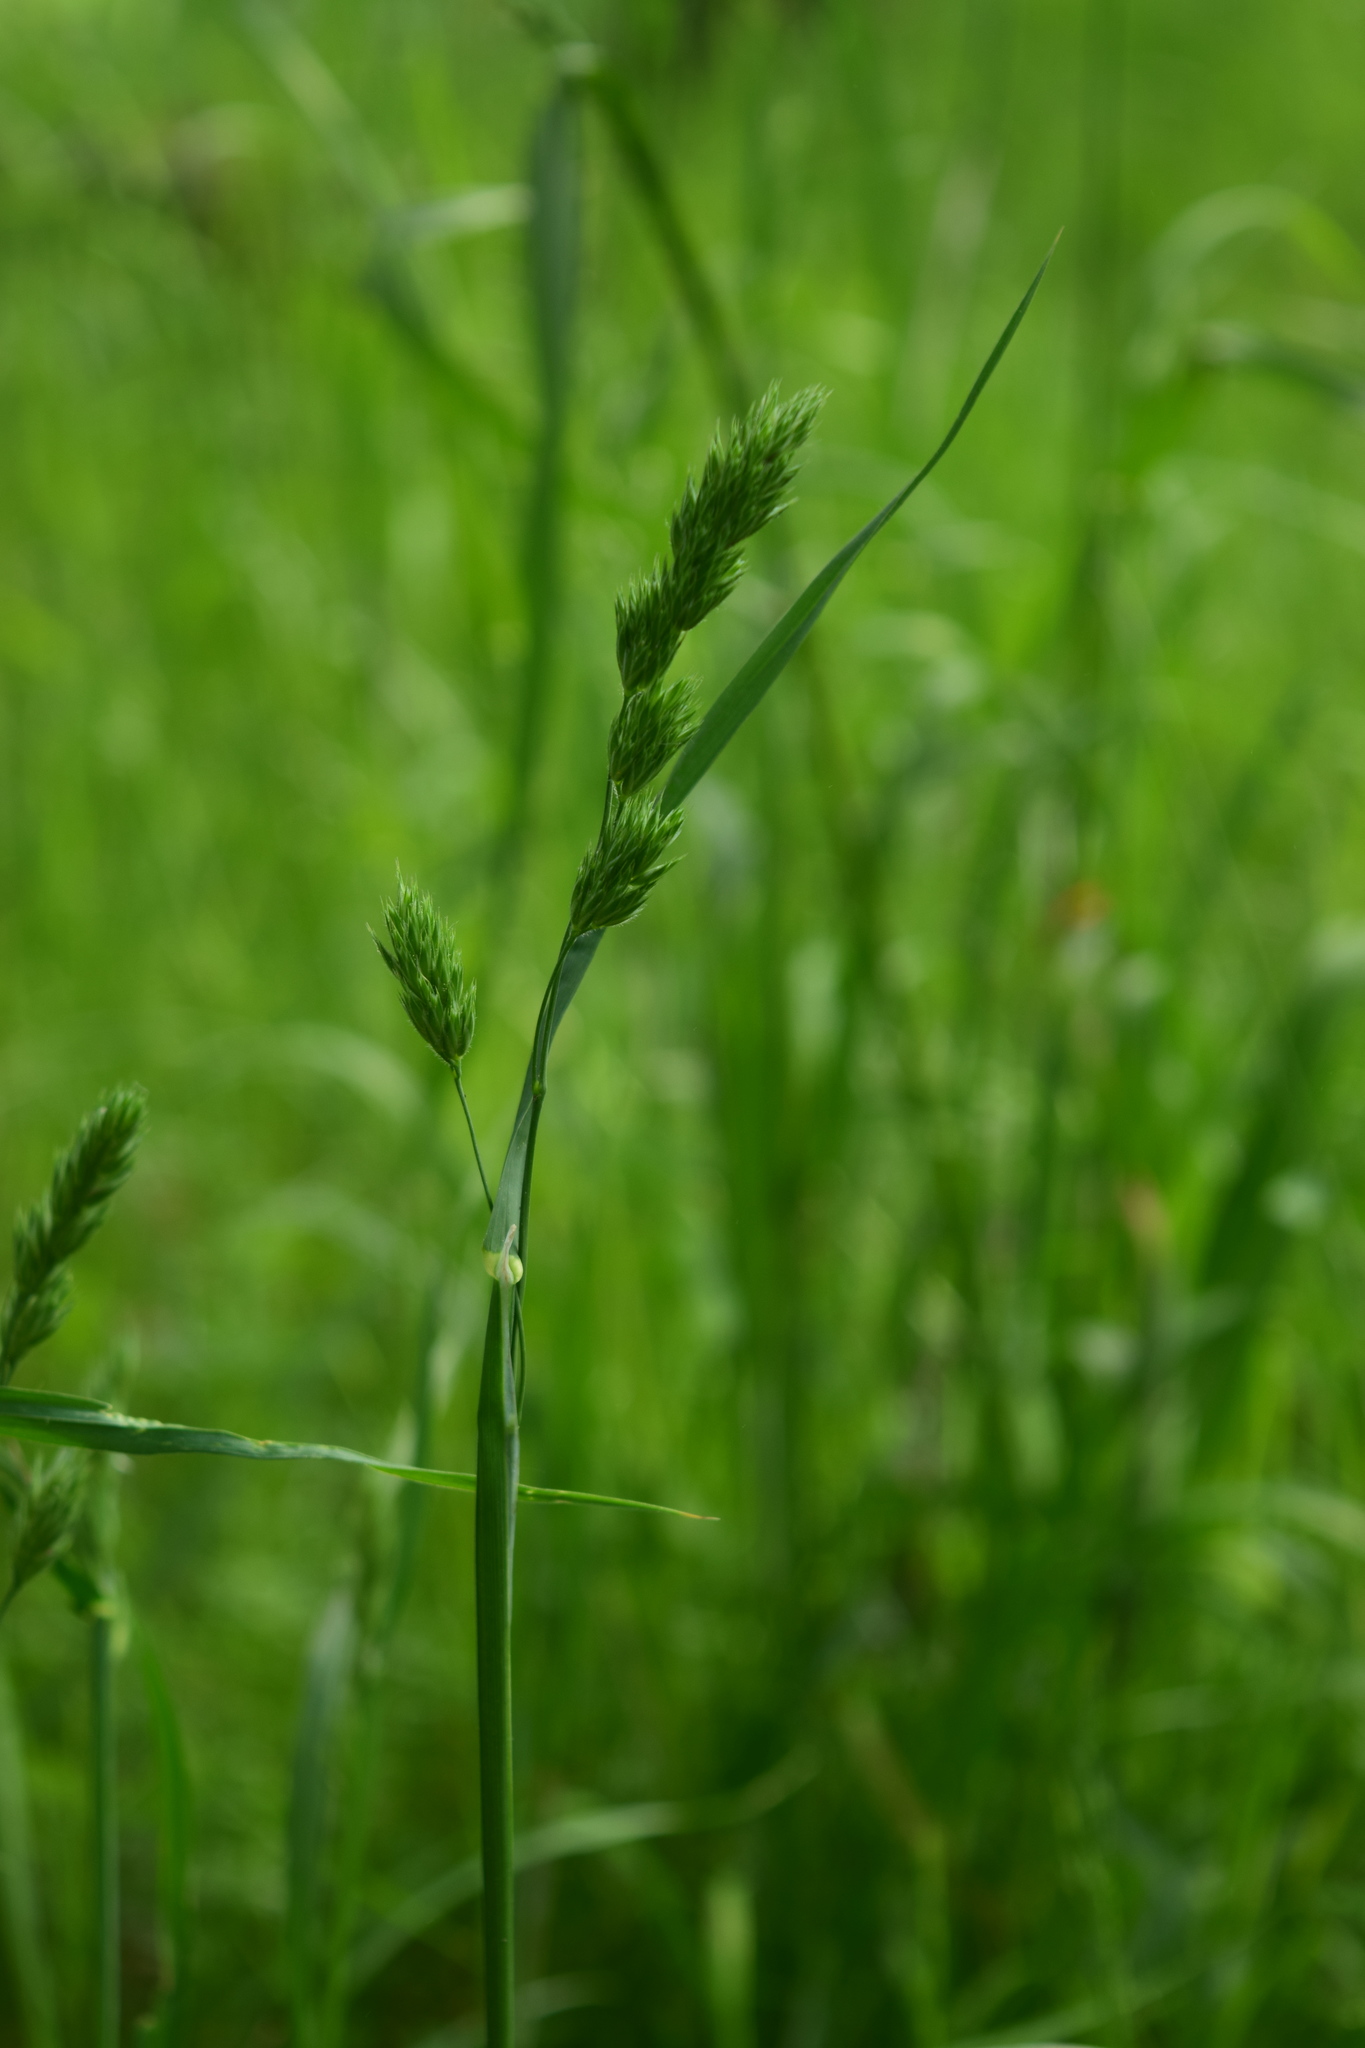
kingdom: Plantae
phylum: Tracheophyta
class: Liliopsida
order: Poales
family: Poaceae
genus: Dactylis
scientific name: Dactylis glomerata
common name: Orchardgrass
